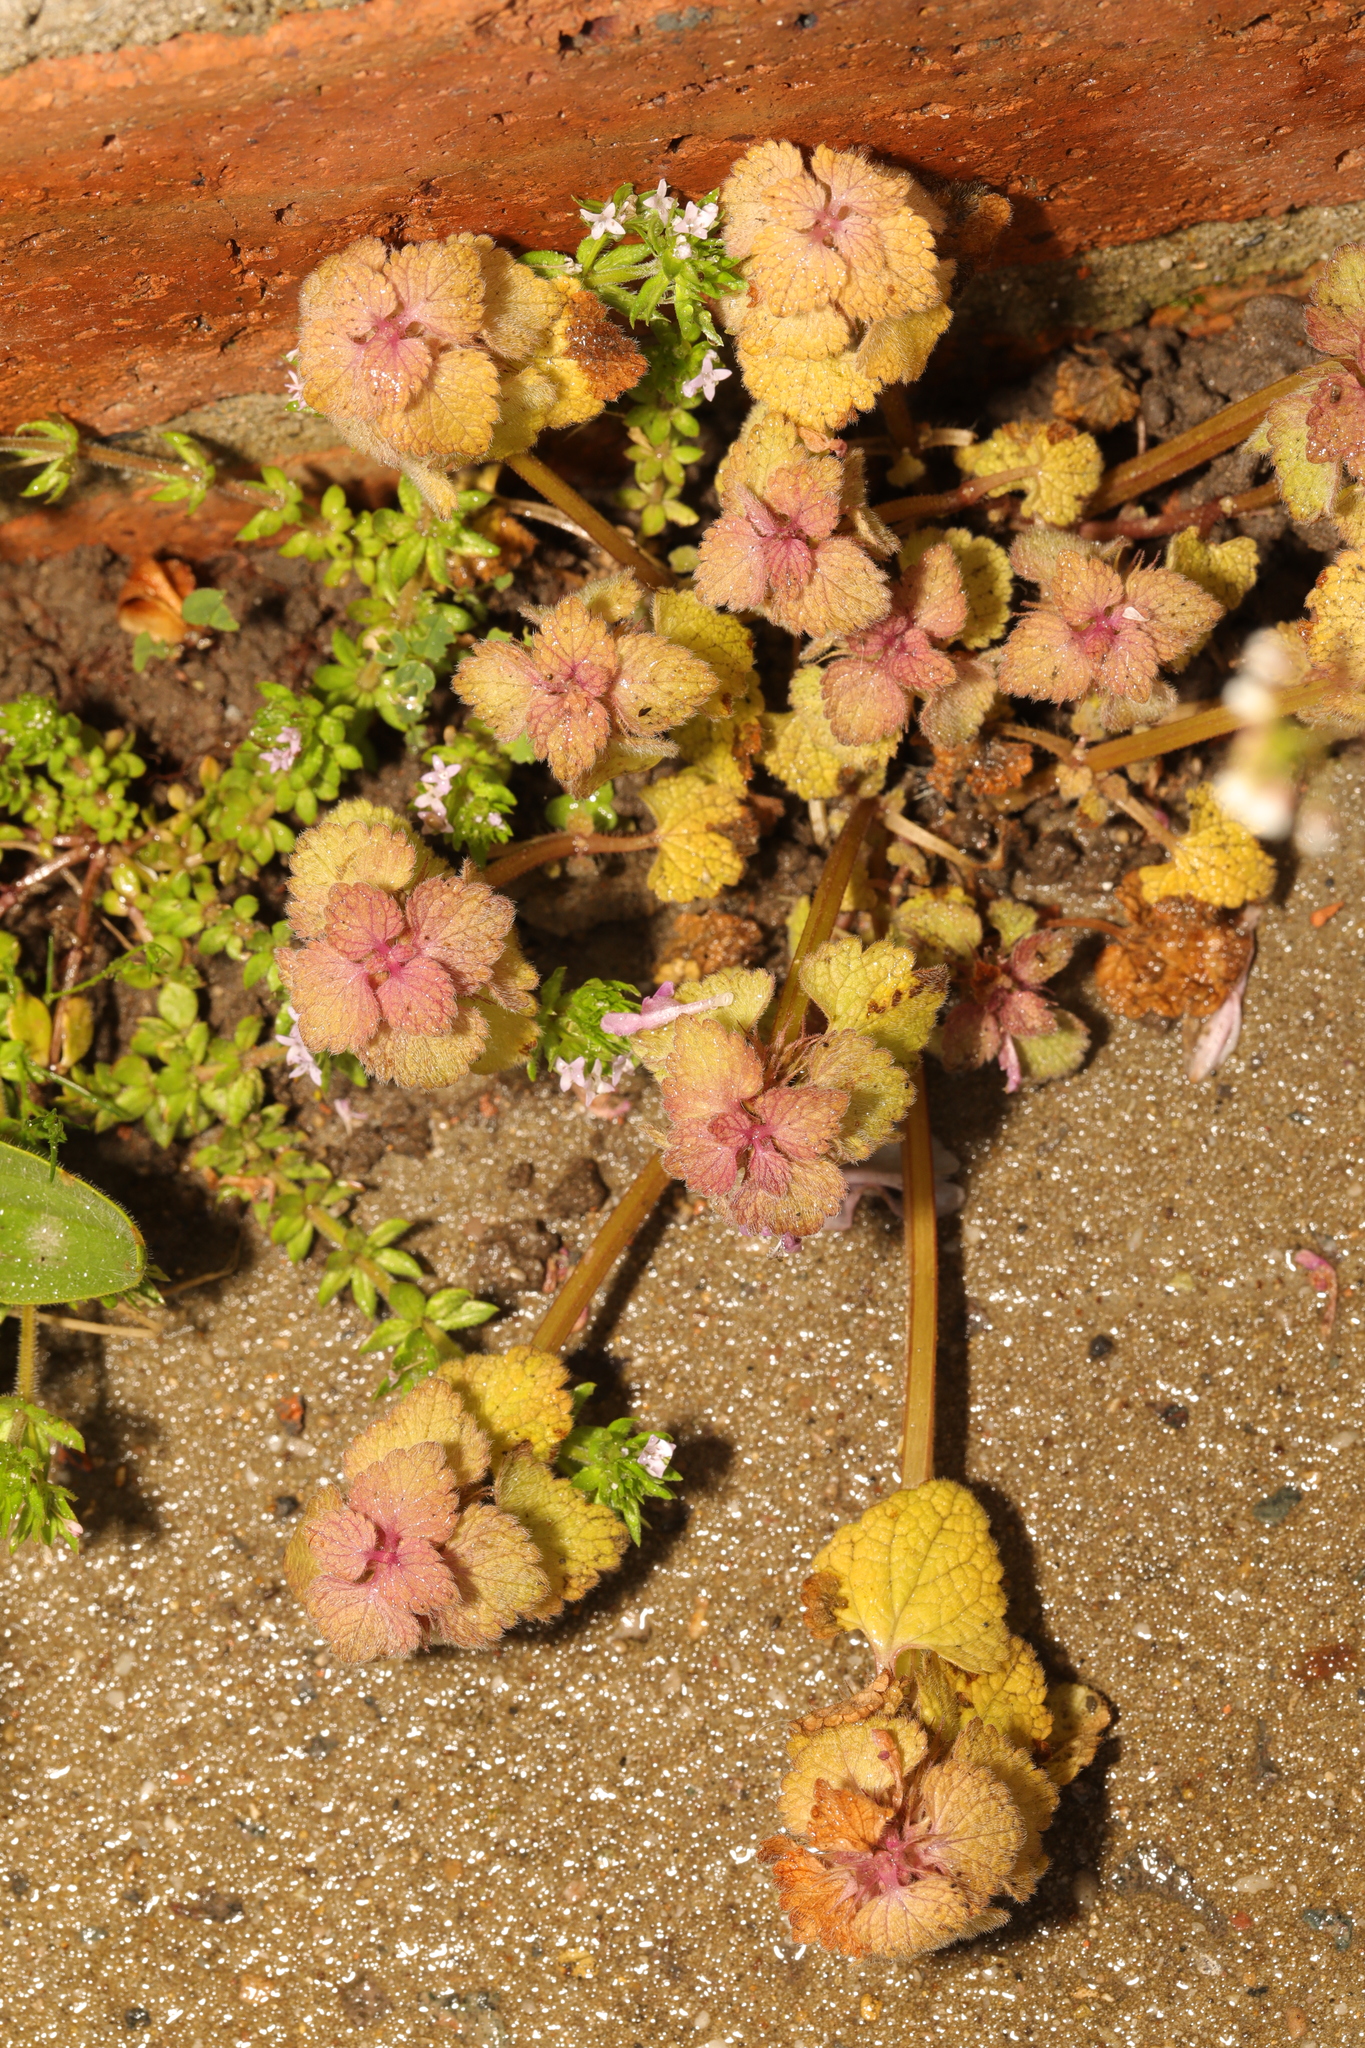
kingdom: Plantae
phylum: Tracheophyta
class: Magnoliopsida
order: Lamiales
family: Lamiaceae
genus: Lamium
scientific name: Lamium purpureum
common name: Red dead-nettle
